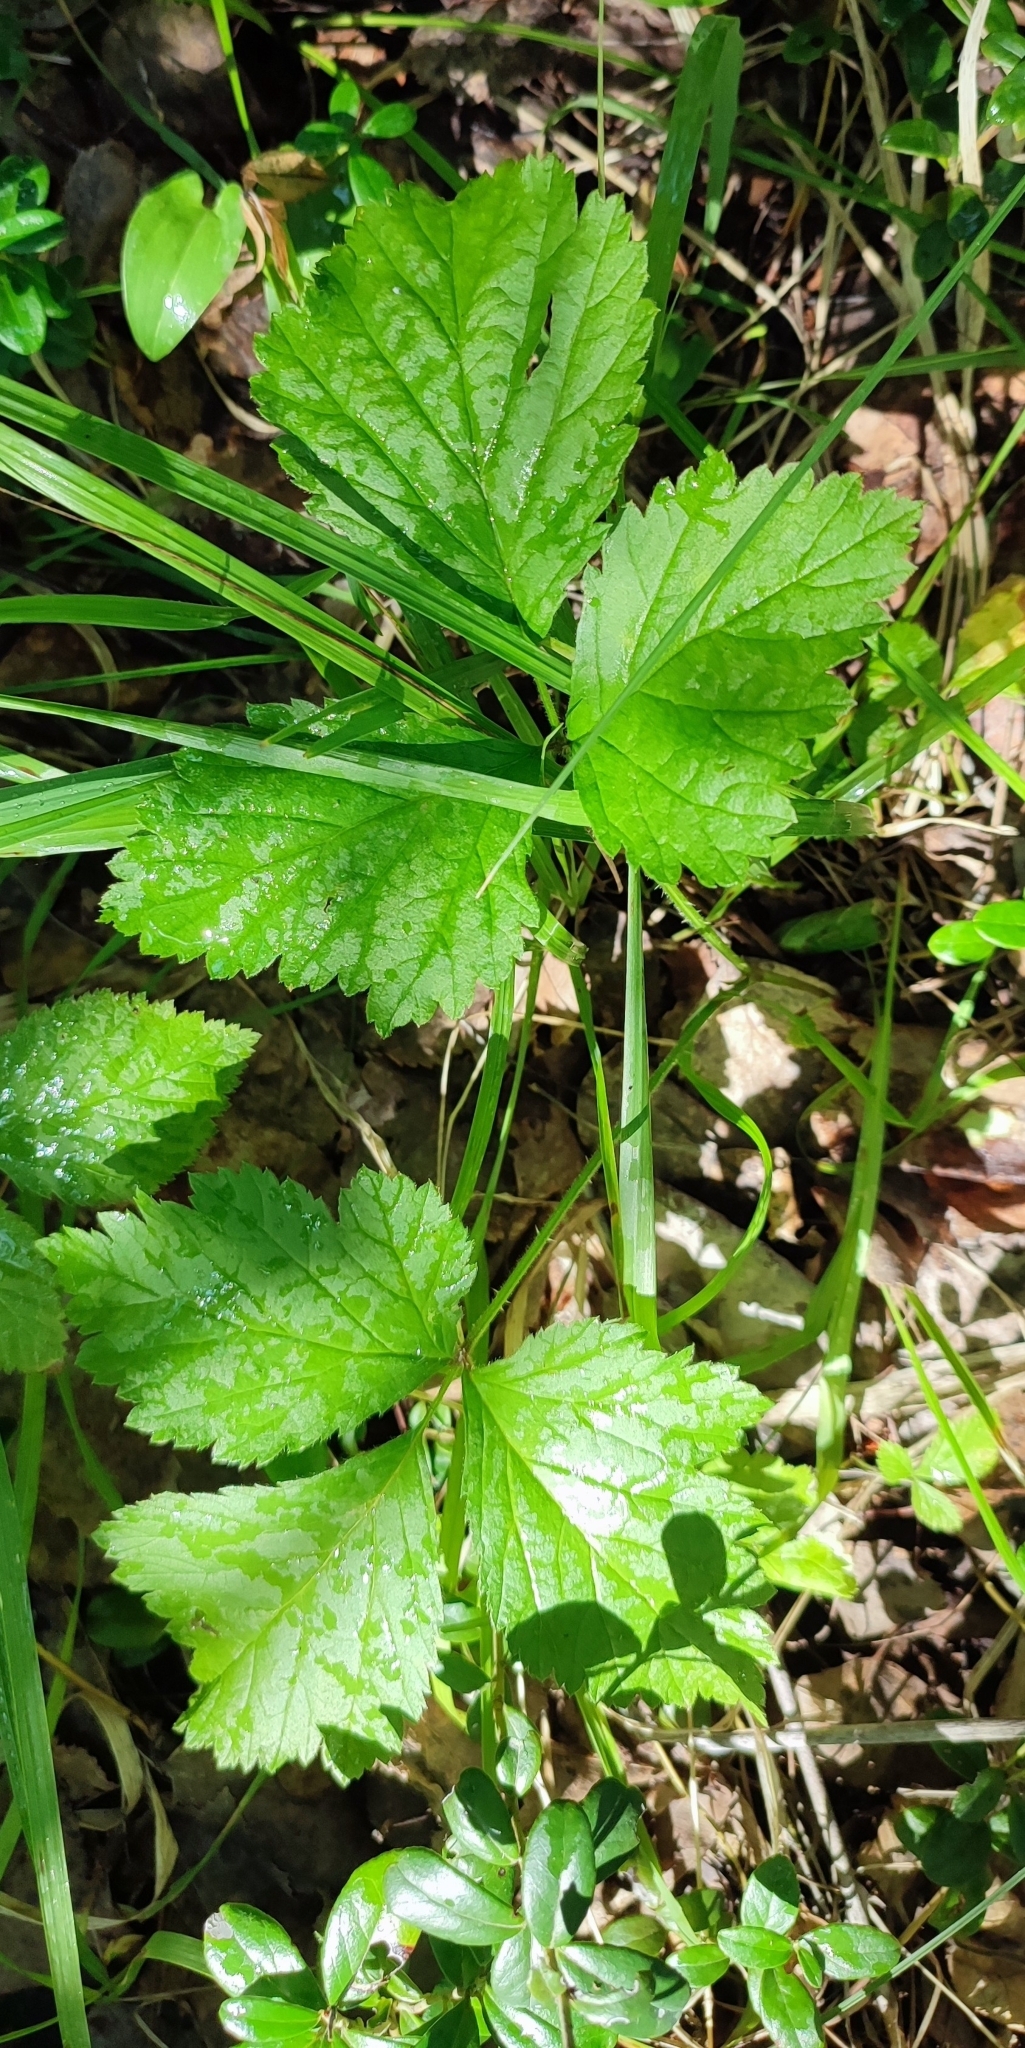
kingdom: Plantae
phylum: Tracheophyta
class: Magnoliopsida
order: Rosales
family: Rosaceae
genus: Rubus
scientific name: Rubus saxatilis
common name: Stone bramble
